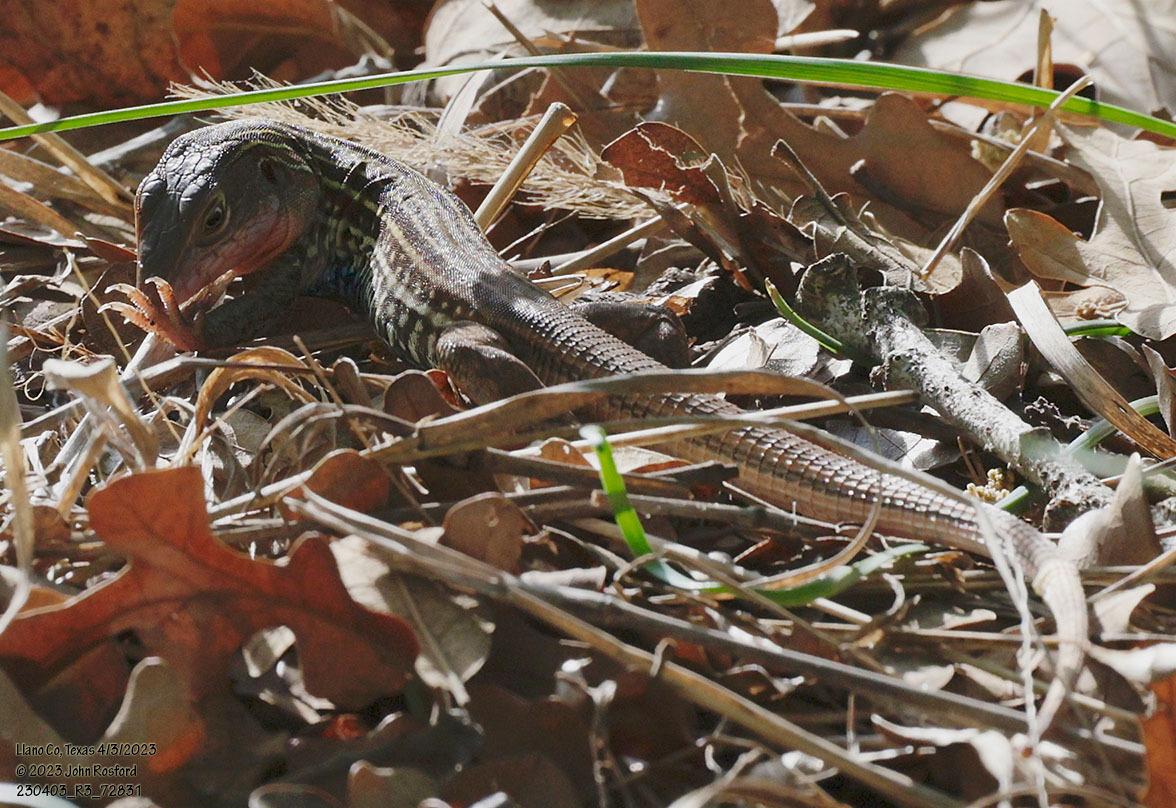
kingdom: Animalia
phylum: Chordata
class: Squamata
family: Teiidae
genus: Aspidoscelis
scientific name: Aspidoscelis gularis
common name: Eastern spotted whiptail
